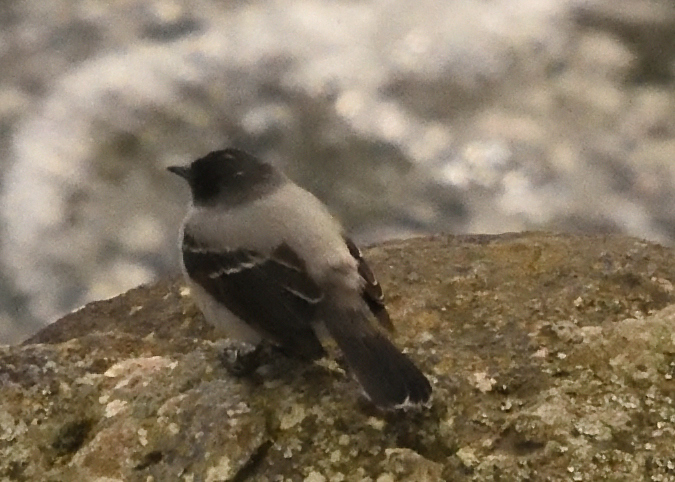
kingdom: Animalia
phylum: Chordata
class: Aves
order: Passeriformes
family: Tyrannidae
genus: Serpophaga
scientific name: Serpophaga cinerea
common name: Torrent tyrannulet
